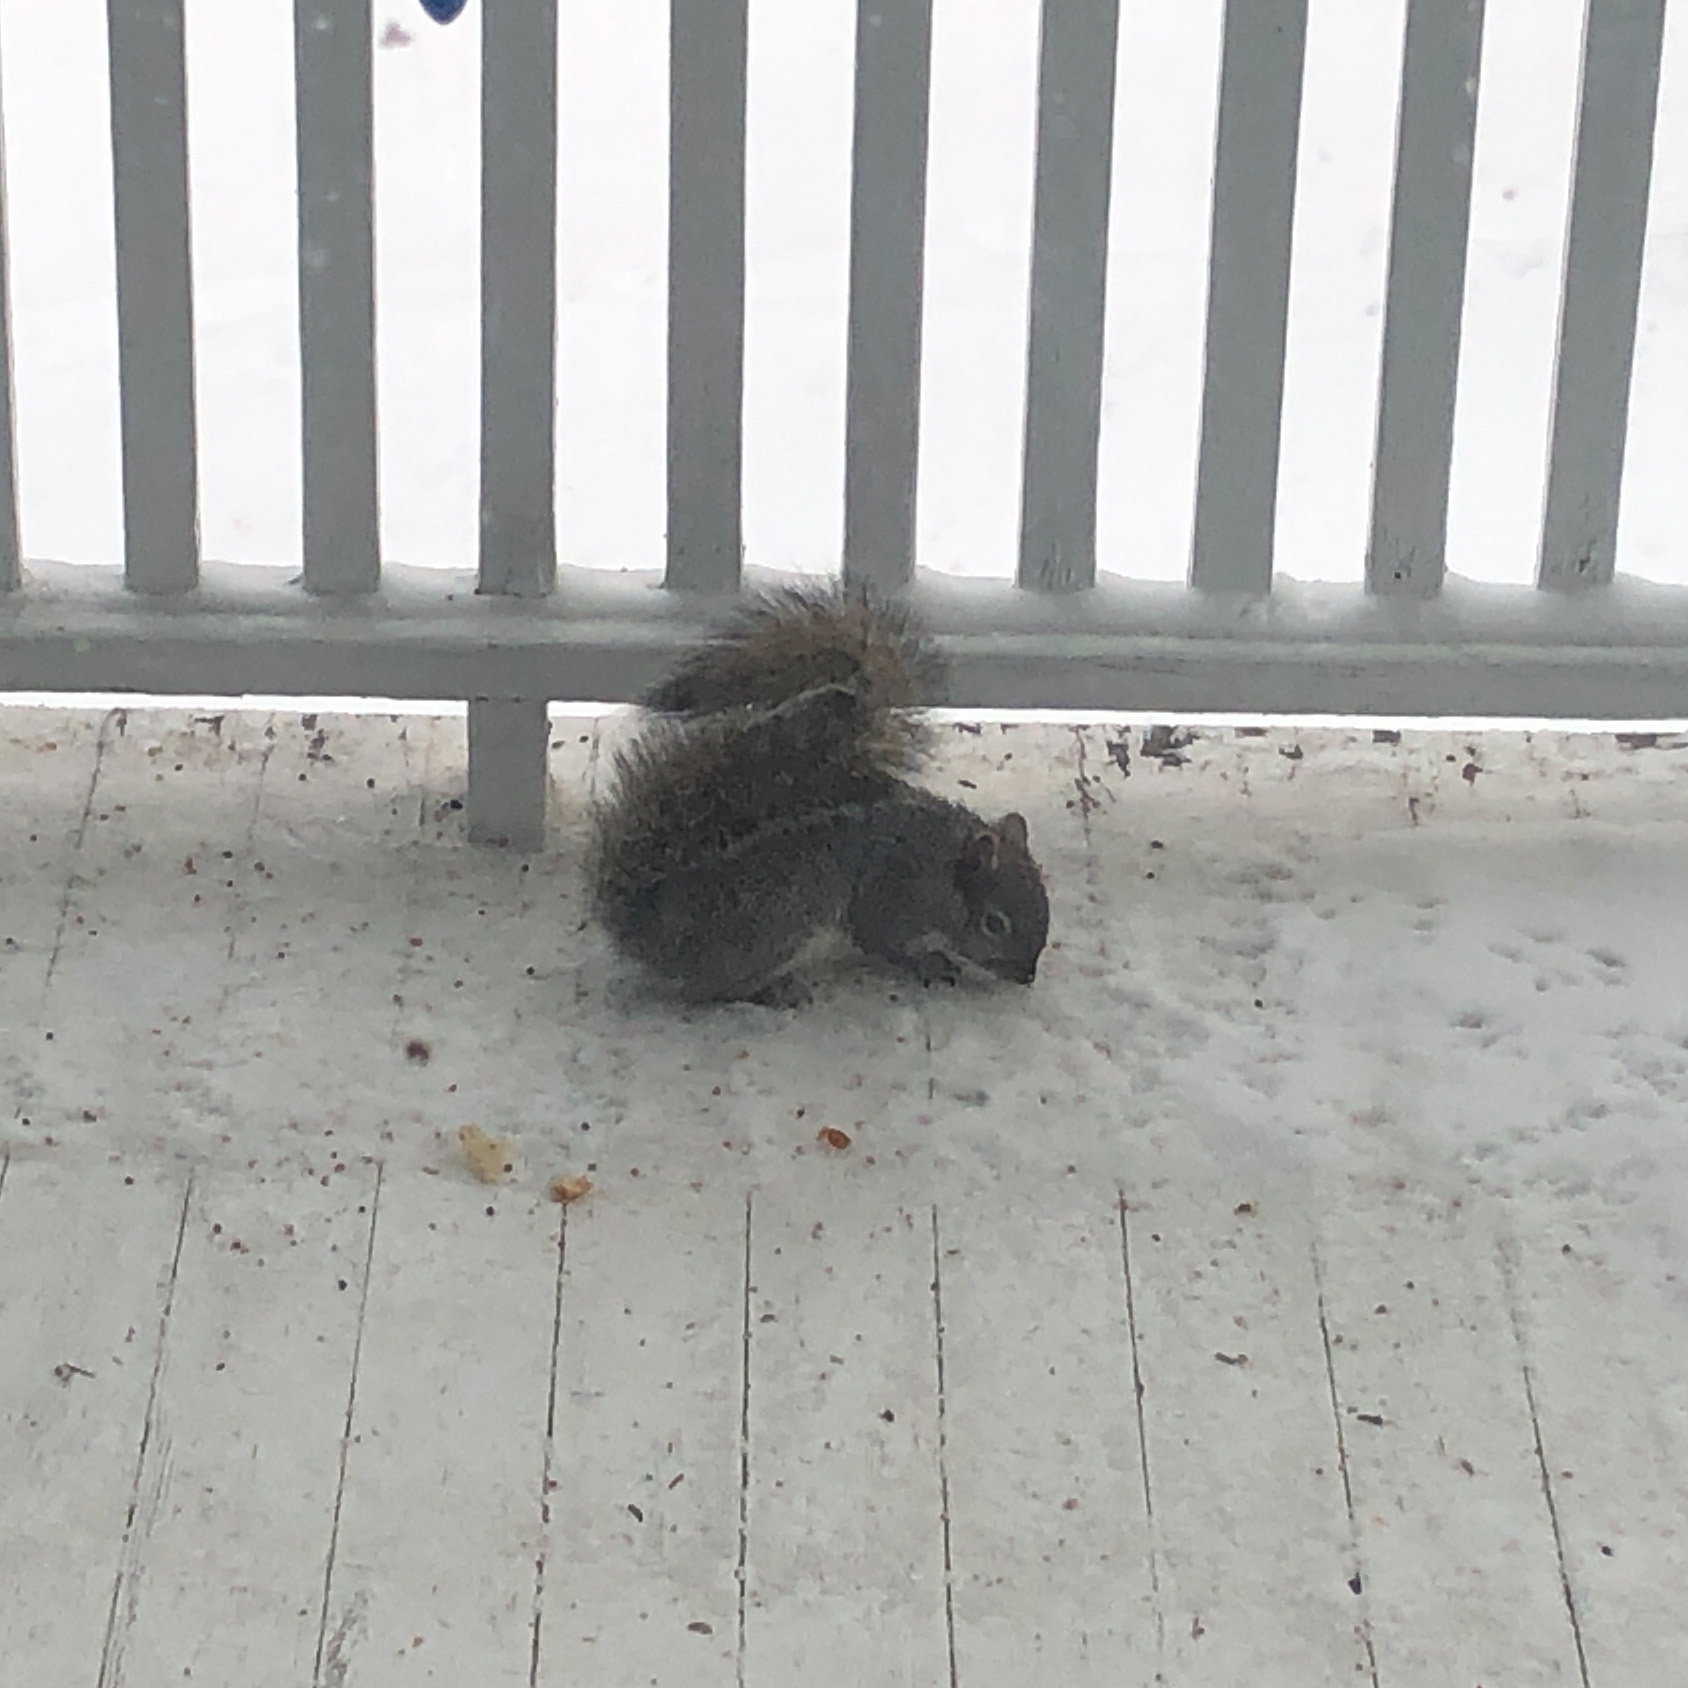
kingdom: Animalia
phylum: Chordata
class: Mammalia
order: Rodentia
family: Sciuridae
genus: Sciurus
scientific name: Sciurus carolinensis
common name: Eastern gray squirrel
